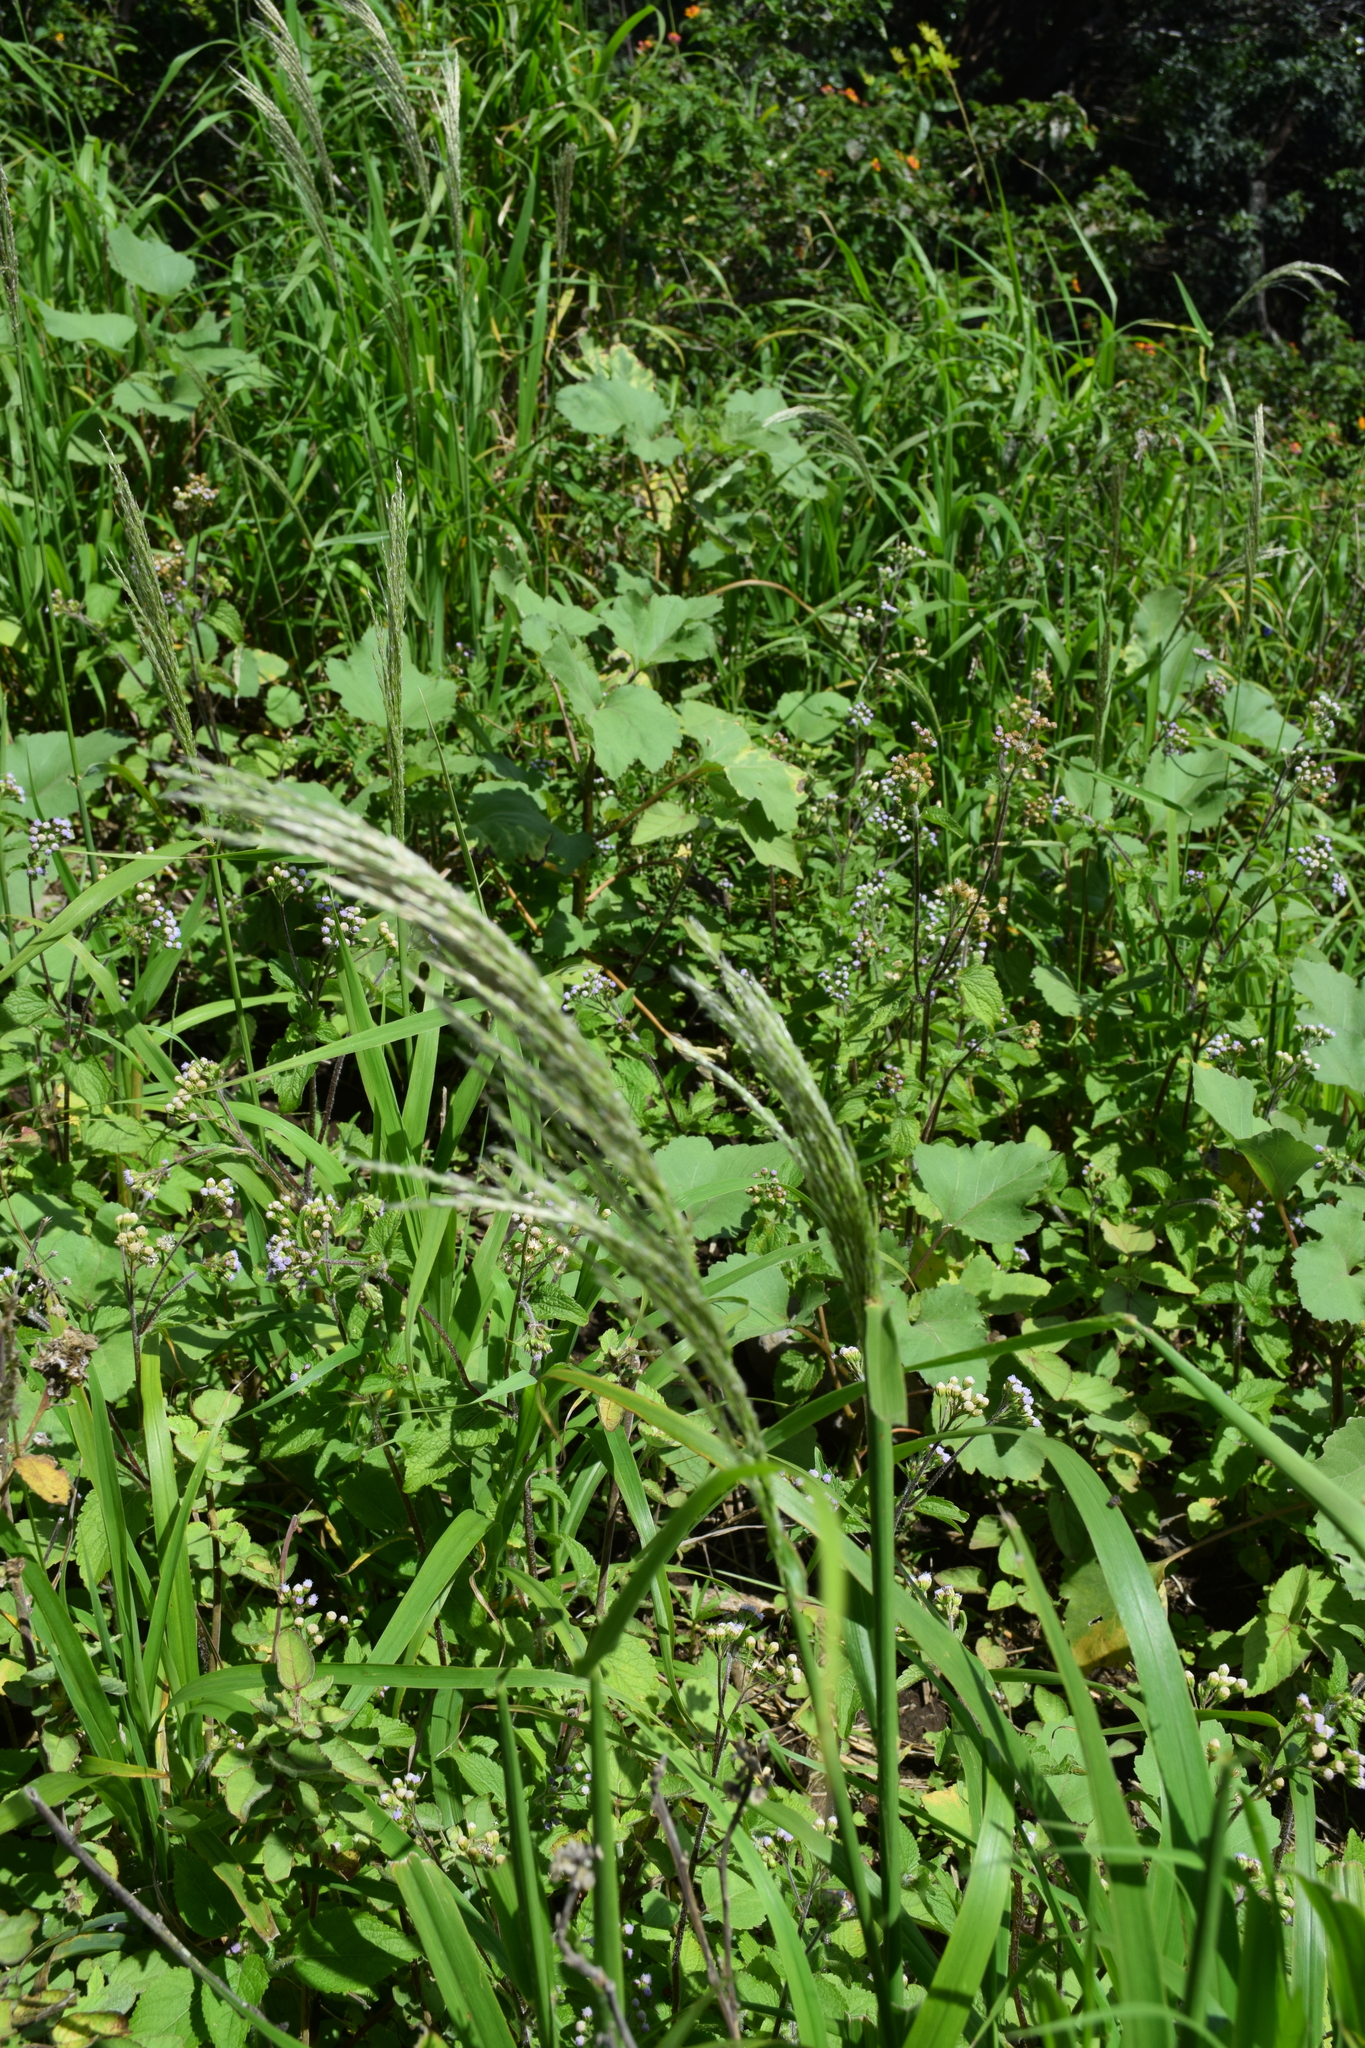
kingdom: Plantae
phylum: Tracheophyta
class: Liliopsida
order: Poales
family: Poaceae
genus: Digitaria
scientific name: Digitaria insularis
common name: Sourgrass
